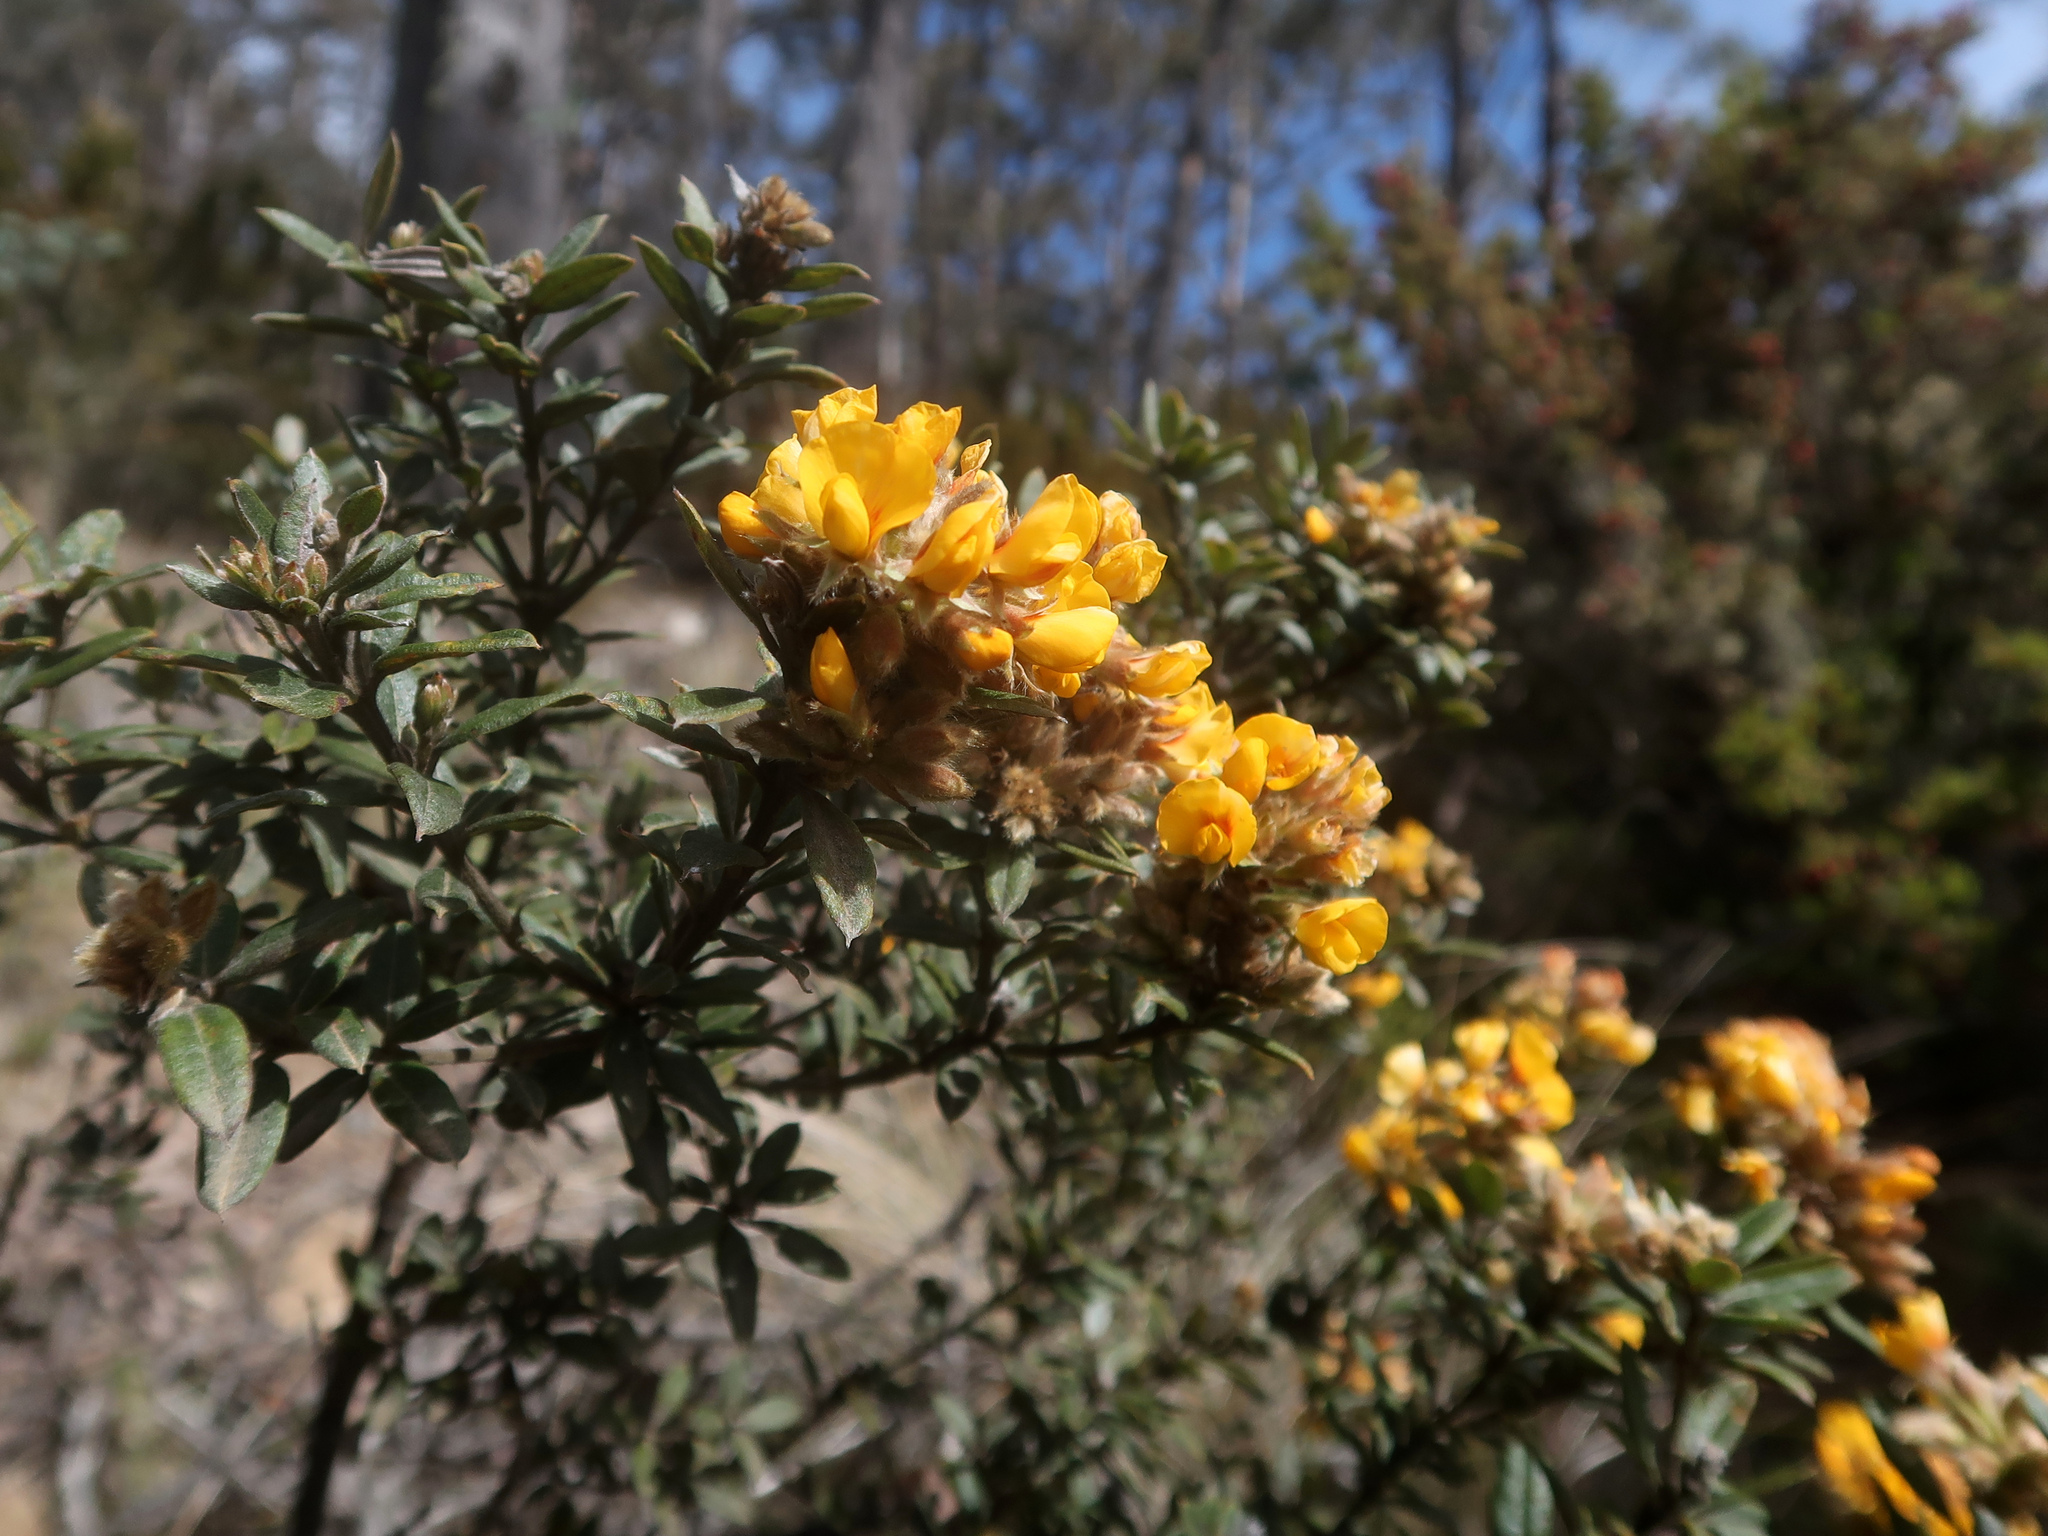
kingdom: Plantae
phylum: Tracheophyta
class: Magnoliopsida
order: Fabales
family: Fabaceae
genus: Oxylobium
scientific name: Oxylobium ellipticum
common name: Golden shaggy-pea
